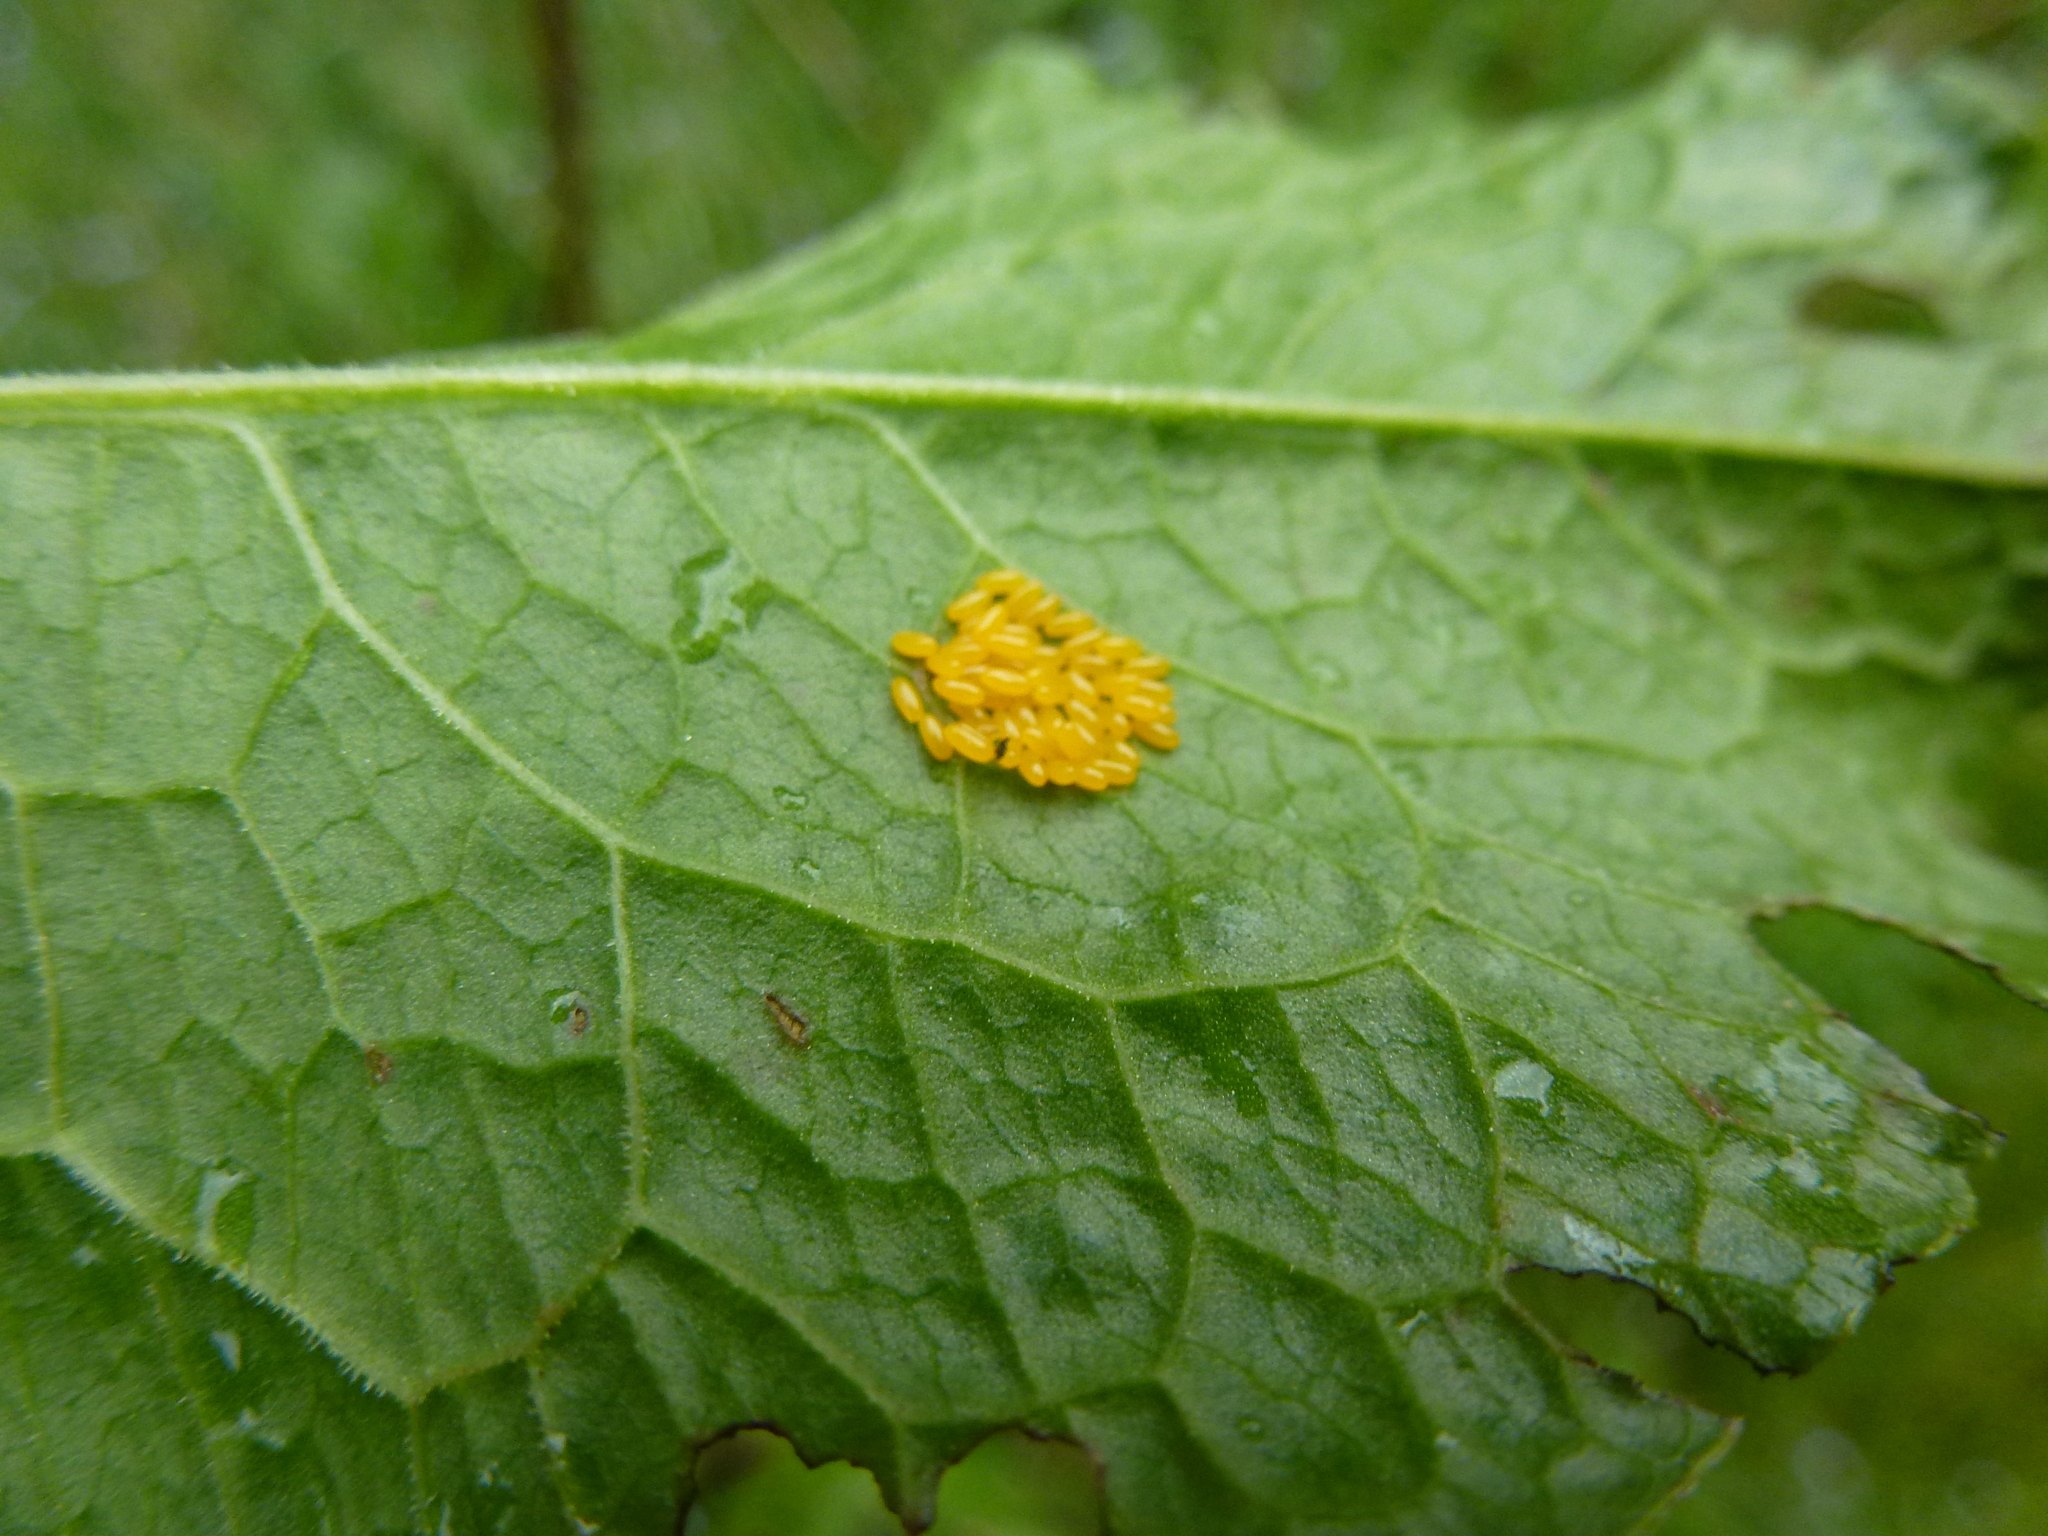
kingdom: Animalia
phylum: Arthropoda
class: Insecta
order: Coleoptera
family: Chrysomelidae
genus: Gastrophysa
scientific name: Gastrophysa viridula
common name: Green dock beetle
